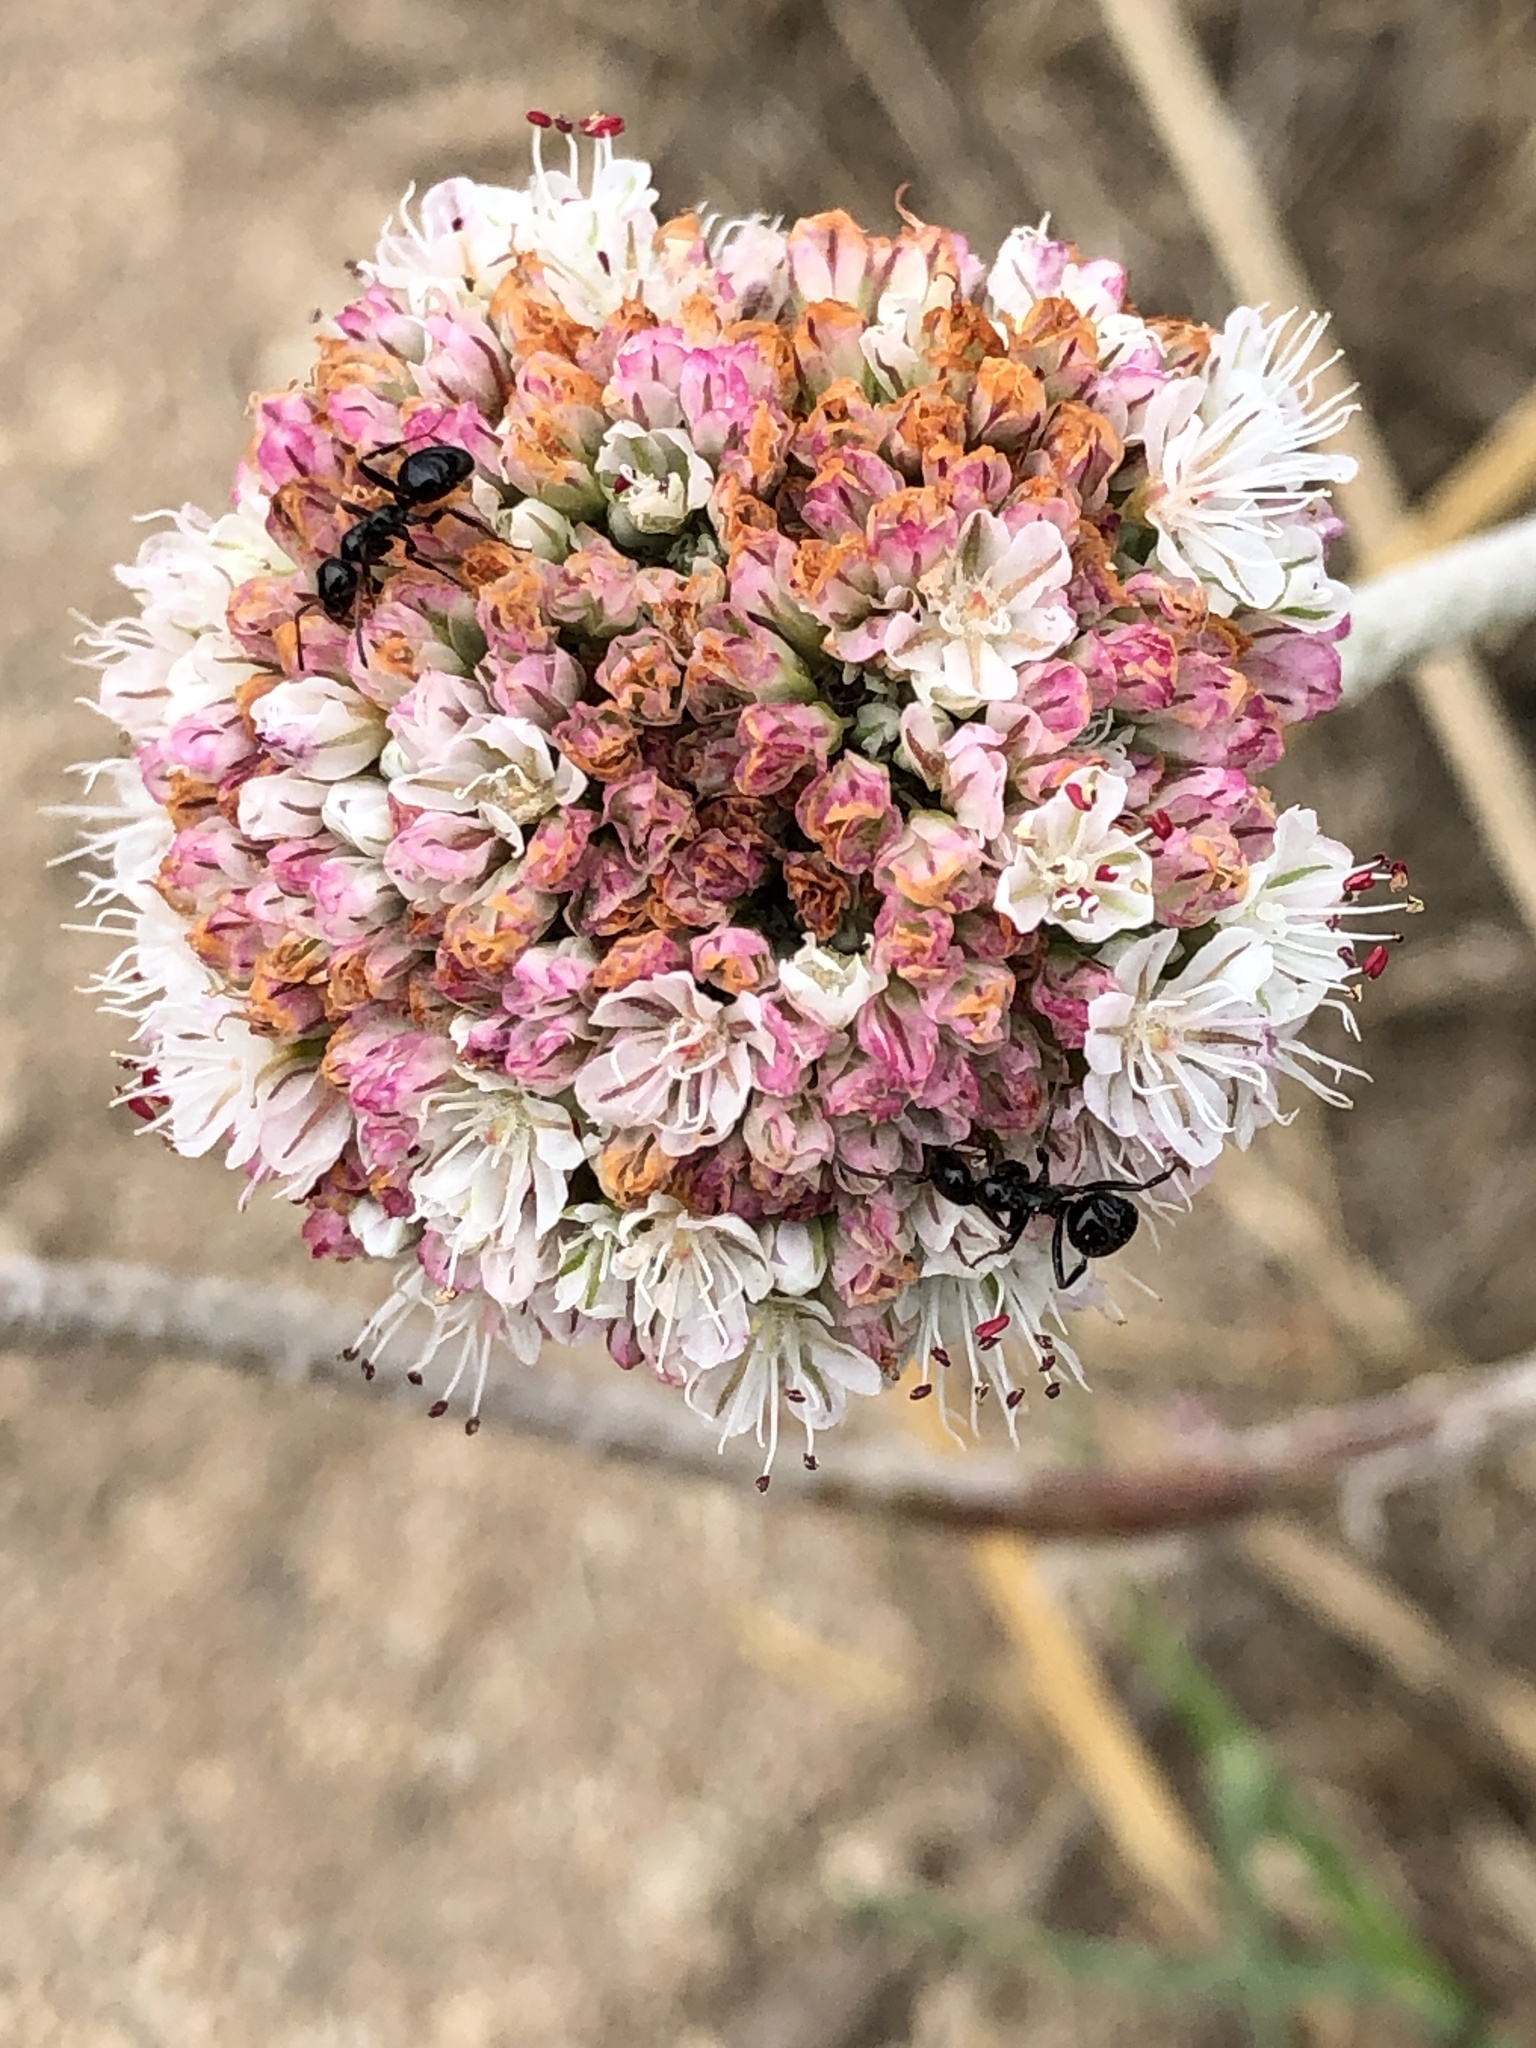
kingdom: Plantae
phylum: Tracheophyta
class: Magnoliopsida
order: Caryophyllales
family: Polygonaceae
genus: Eriogonum
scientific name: Eriogonum latifolium
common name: Seaside wild buckwheat
